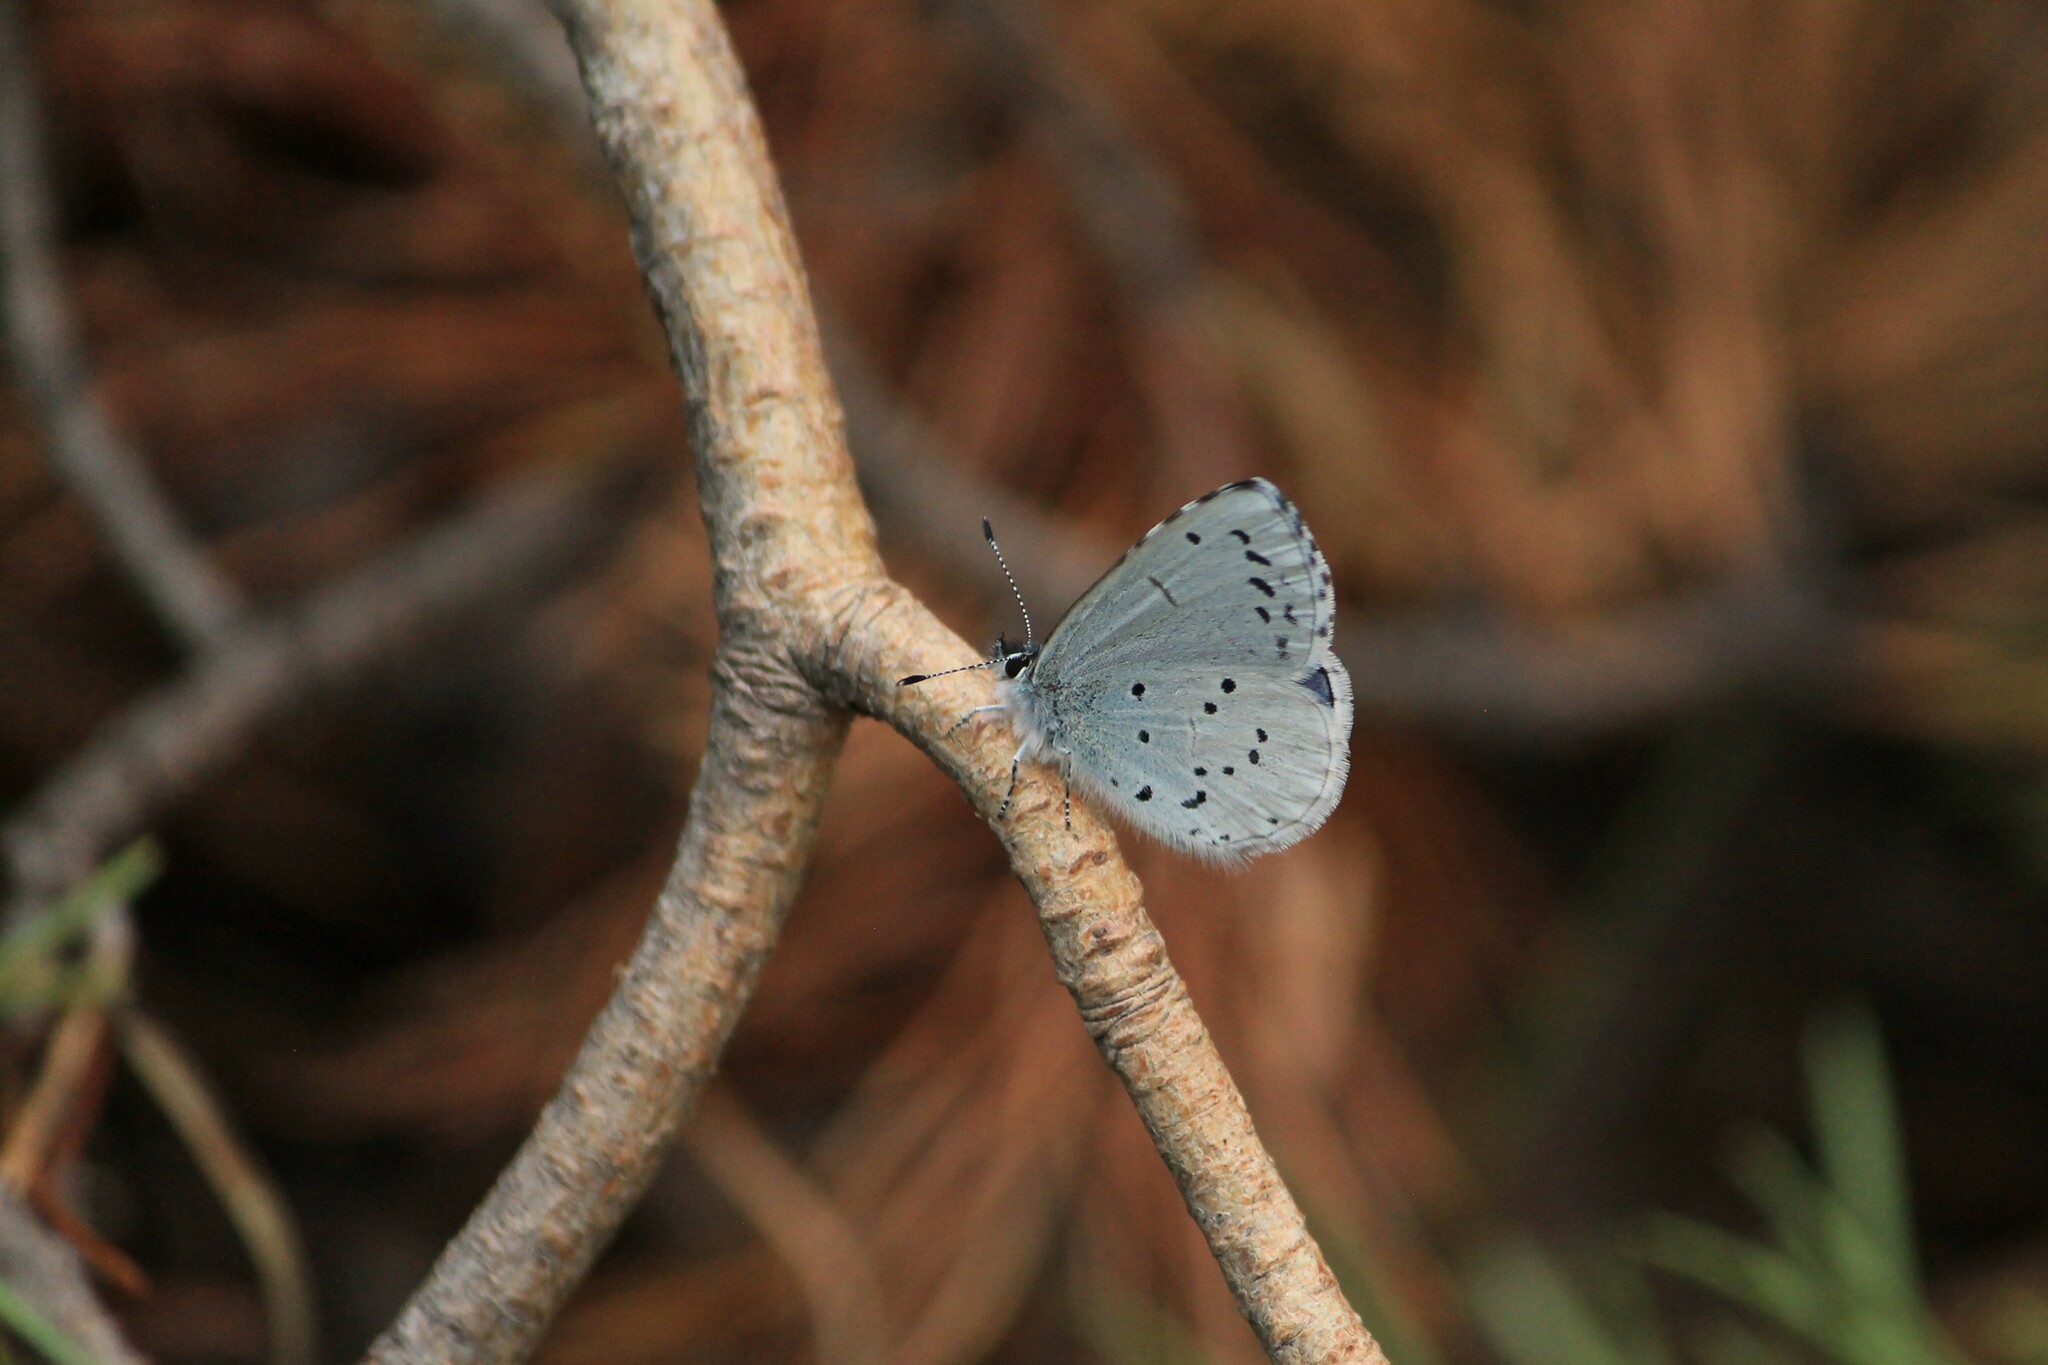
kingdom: Animalia
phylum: Arthropoda
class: Insecta
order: Lepidoptera
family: Lycaenidae
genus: Celastrina
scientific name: Celastrina argiolus
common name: Holly blue
